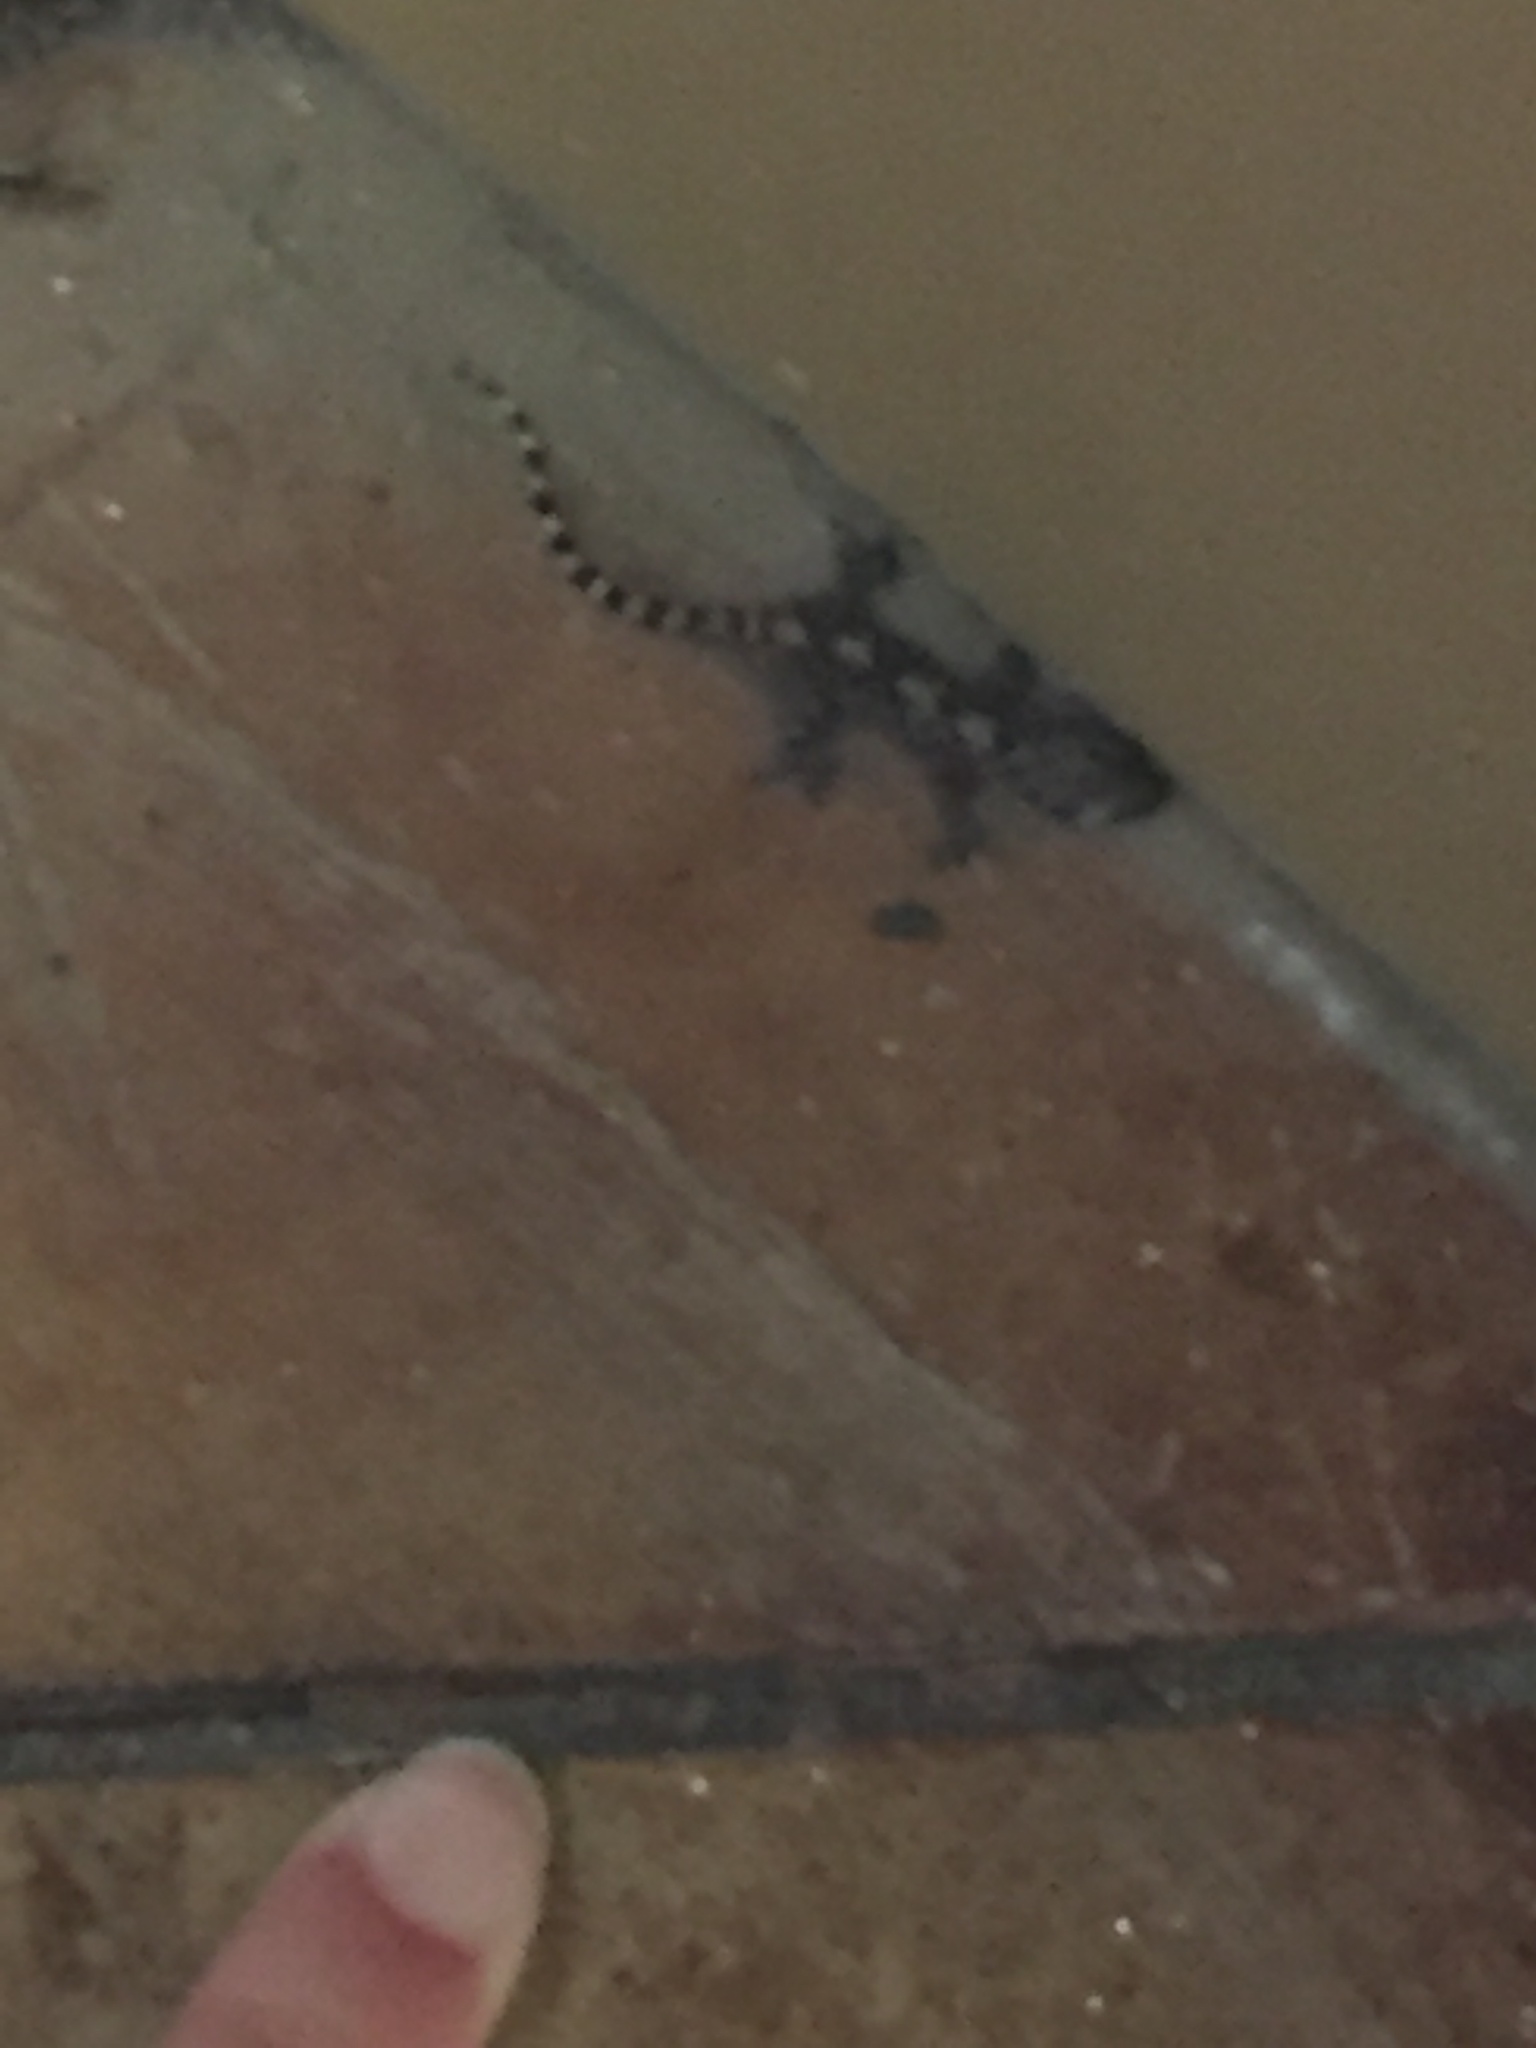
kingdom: Animalia
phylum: Chordata
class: Squamata
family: Gekkonidae
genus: Hemidactylus
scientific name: Hemidactylus turcicus
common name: Turkish gecko
